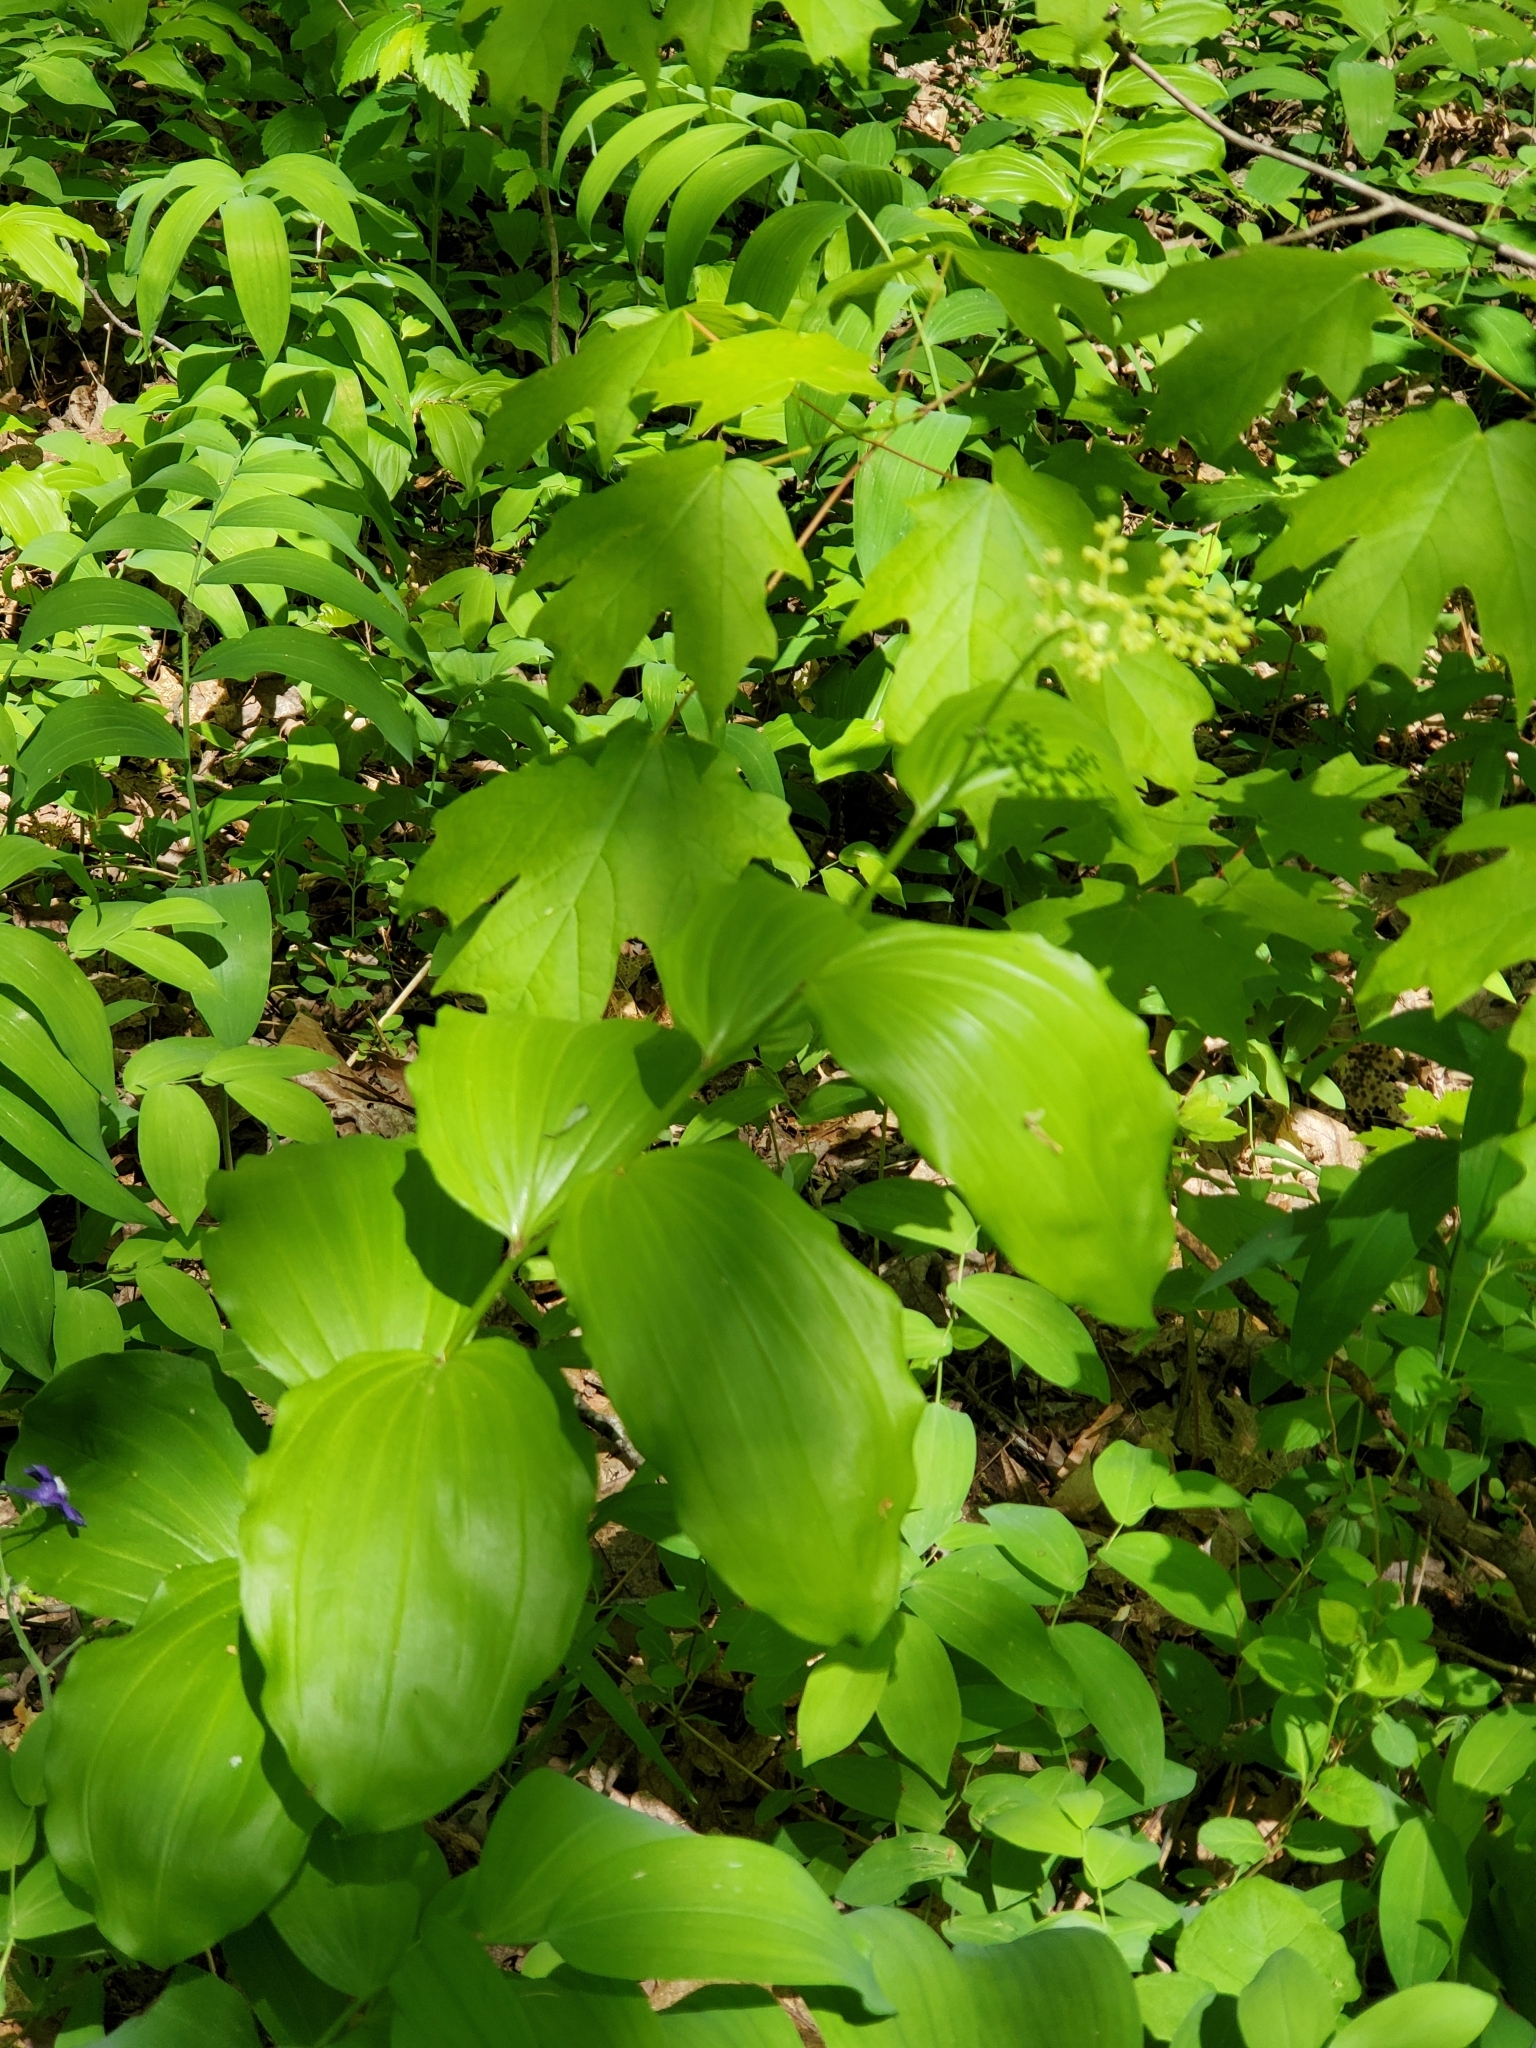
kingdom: Plantae
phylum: Tracheophyta
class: Liliopsida
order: Asparagales
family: Asparagaceae
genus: Maianthemum
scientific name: Maianthemum racemosum
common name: False spikenard
